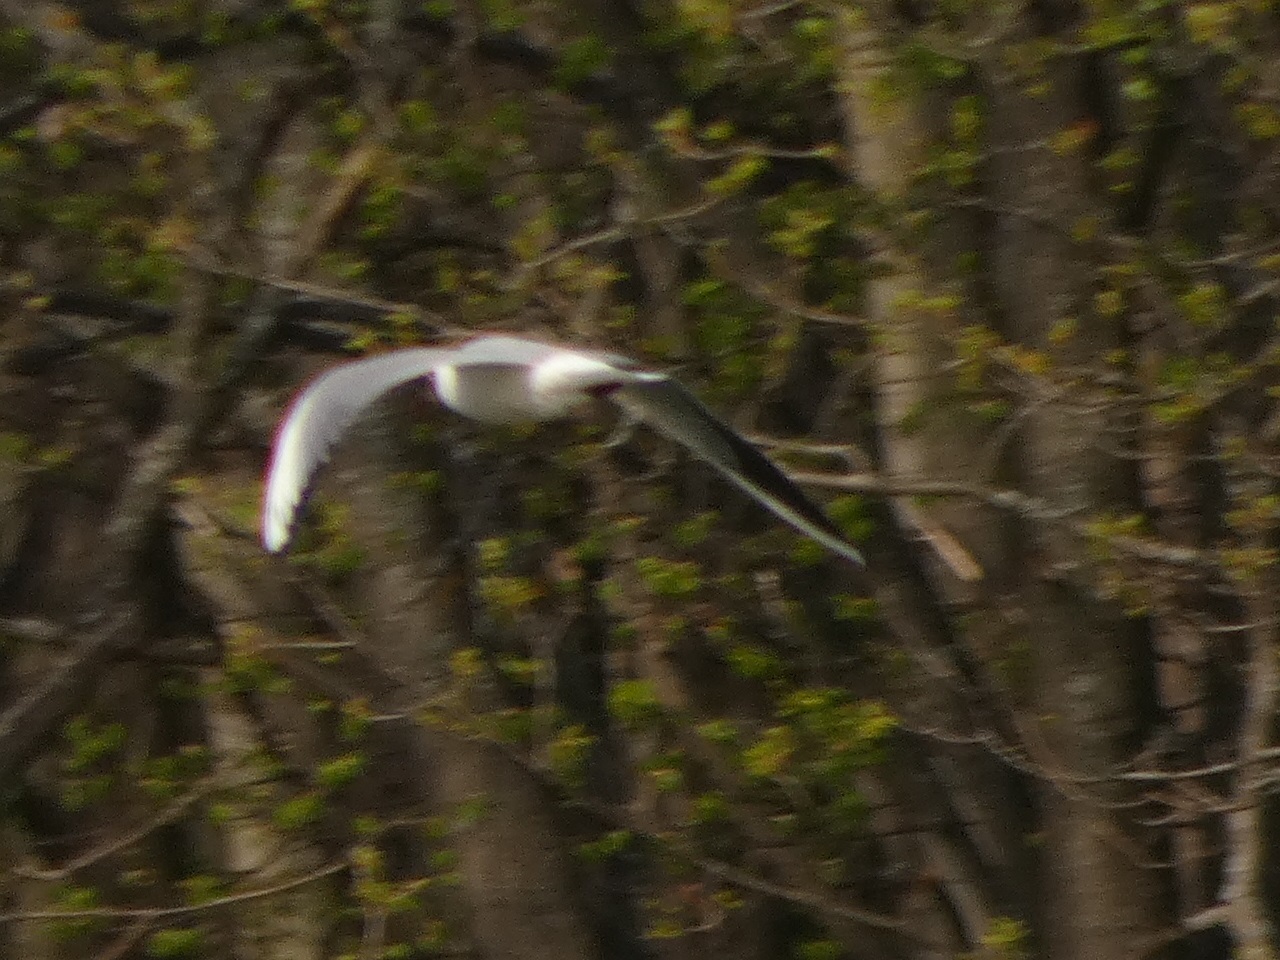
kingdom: Animalia
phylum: Chordata
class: Aves
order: Charadriiformes
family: Laridae
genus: Chroicocephalus
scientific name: Chroicocephalus ridibundus
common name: Black-headed gull
